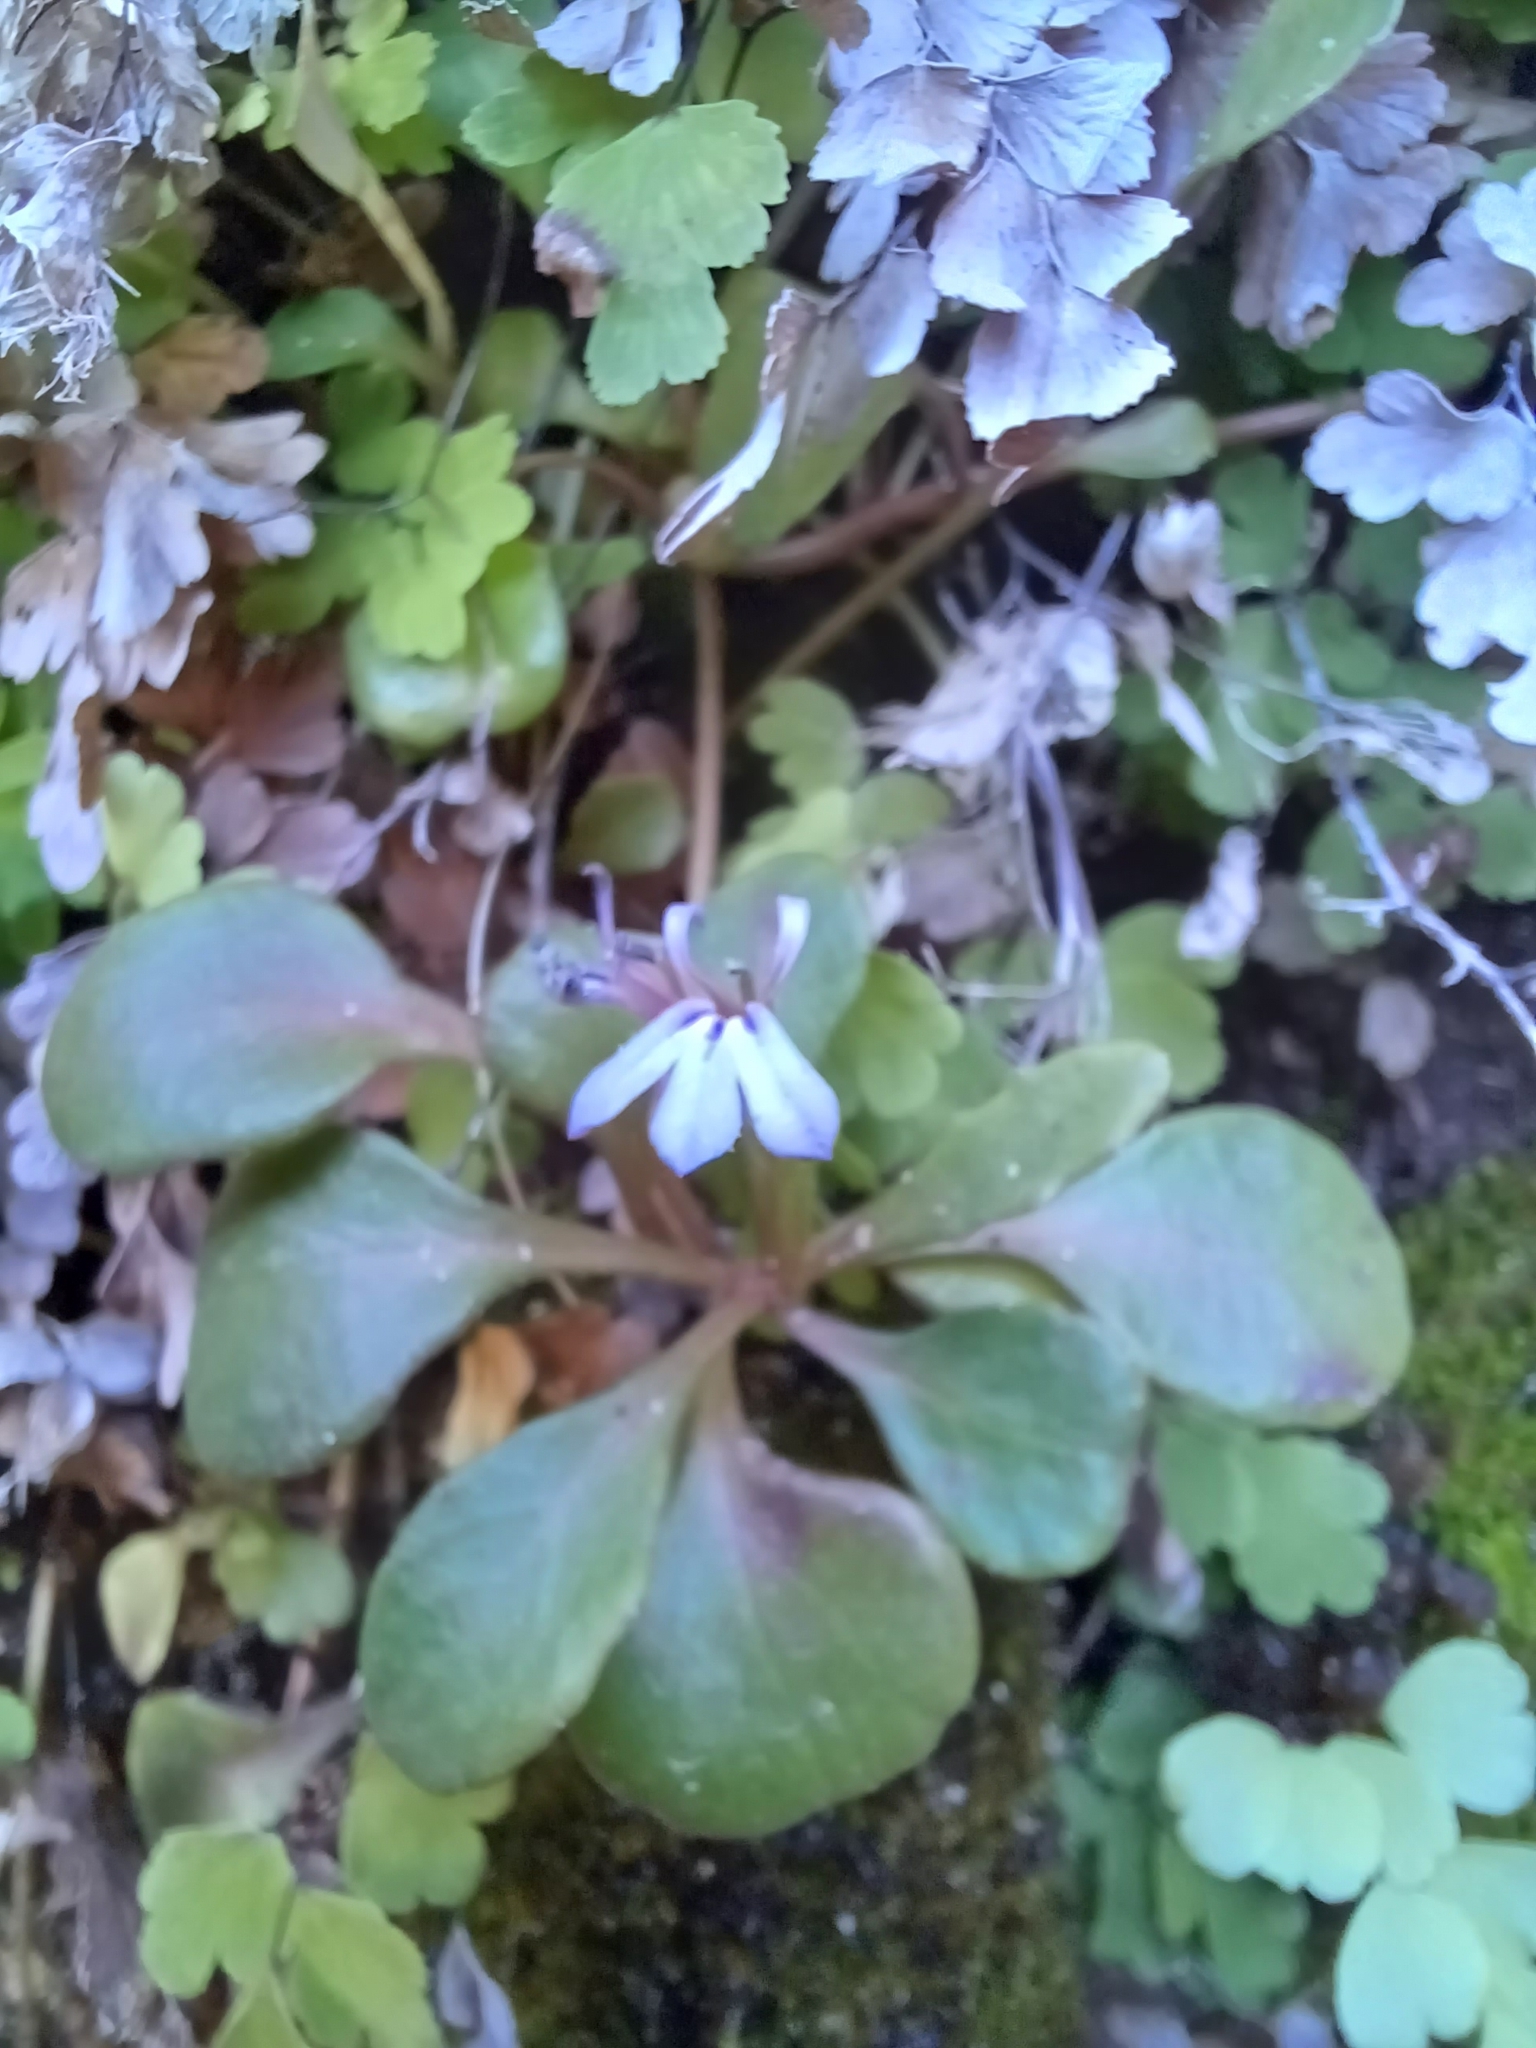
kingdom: Plantae
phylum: Tracheophyta
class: Magnoliopsida
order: Asterales
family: Campanulaceae
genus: Lobelia
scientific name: Lobelia anceps
